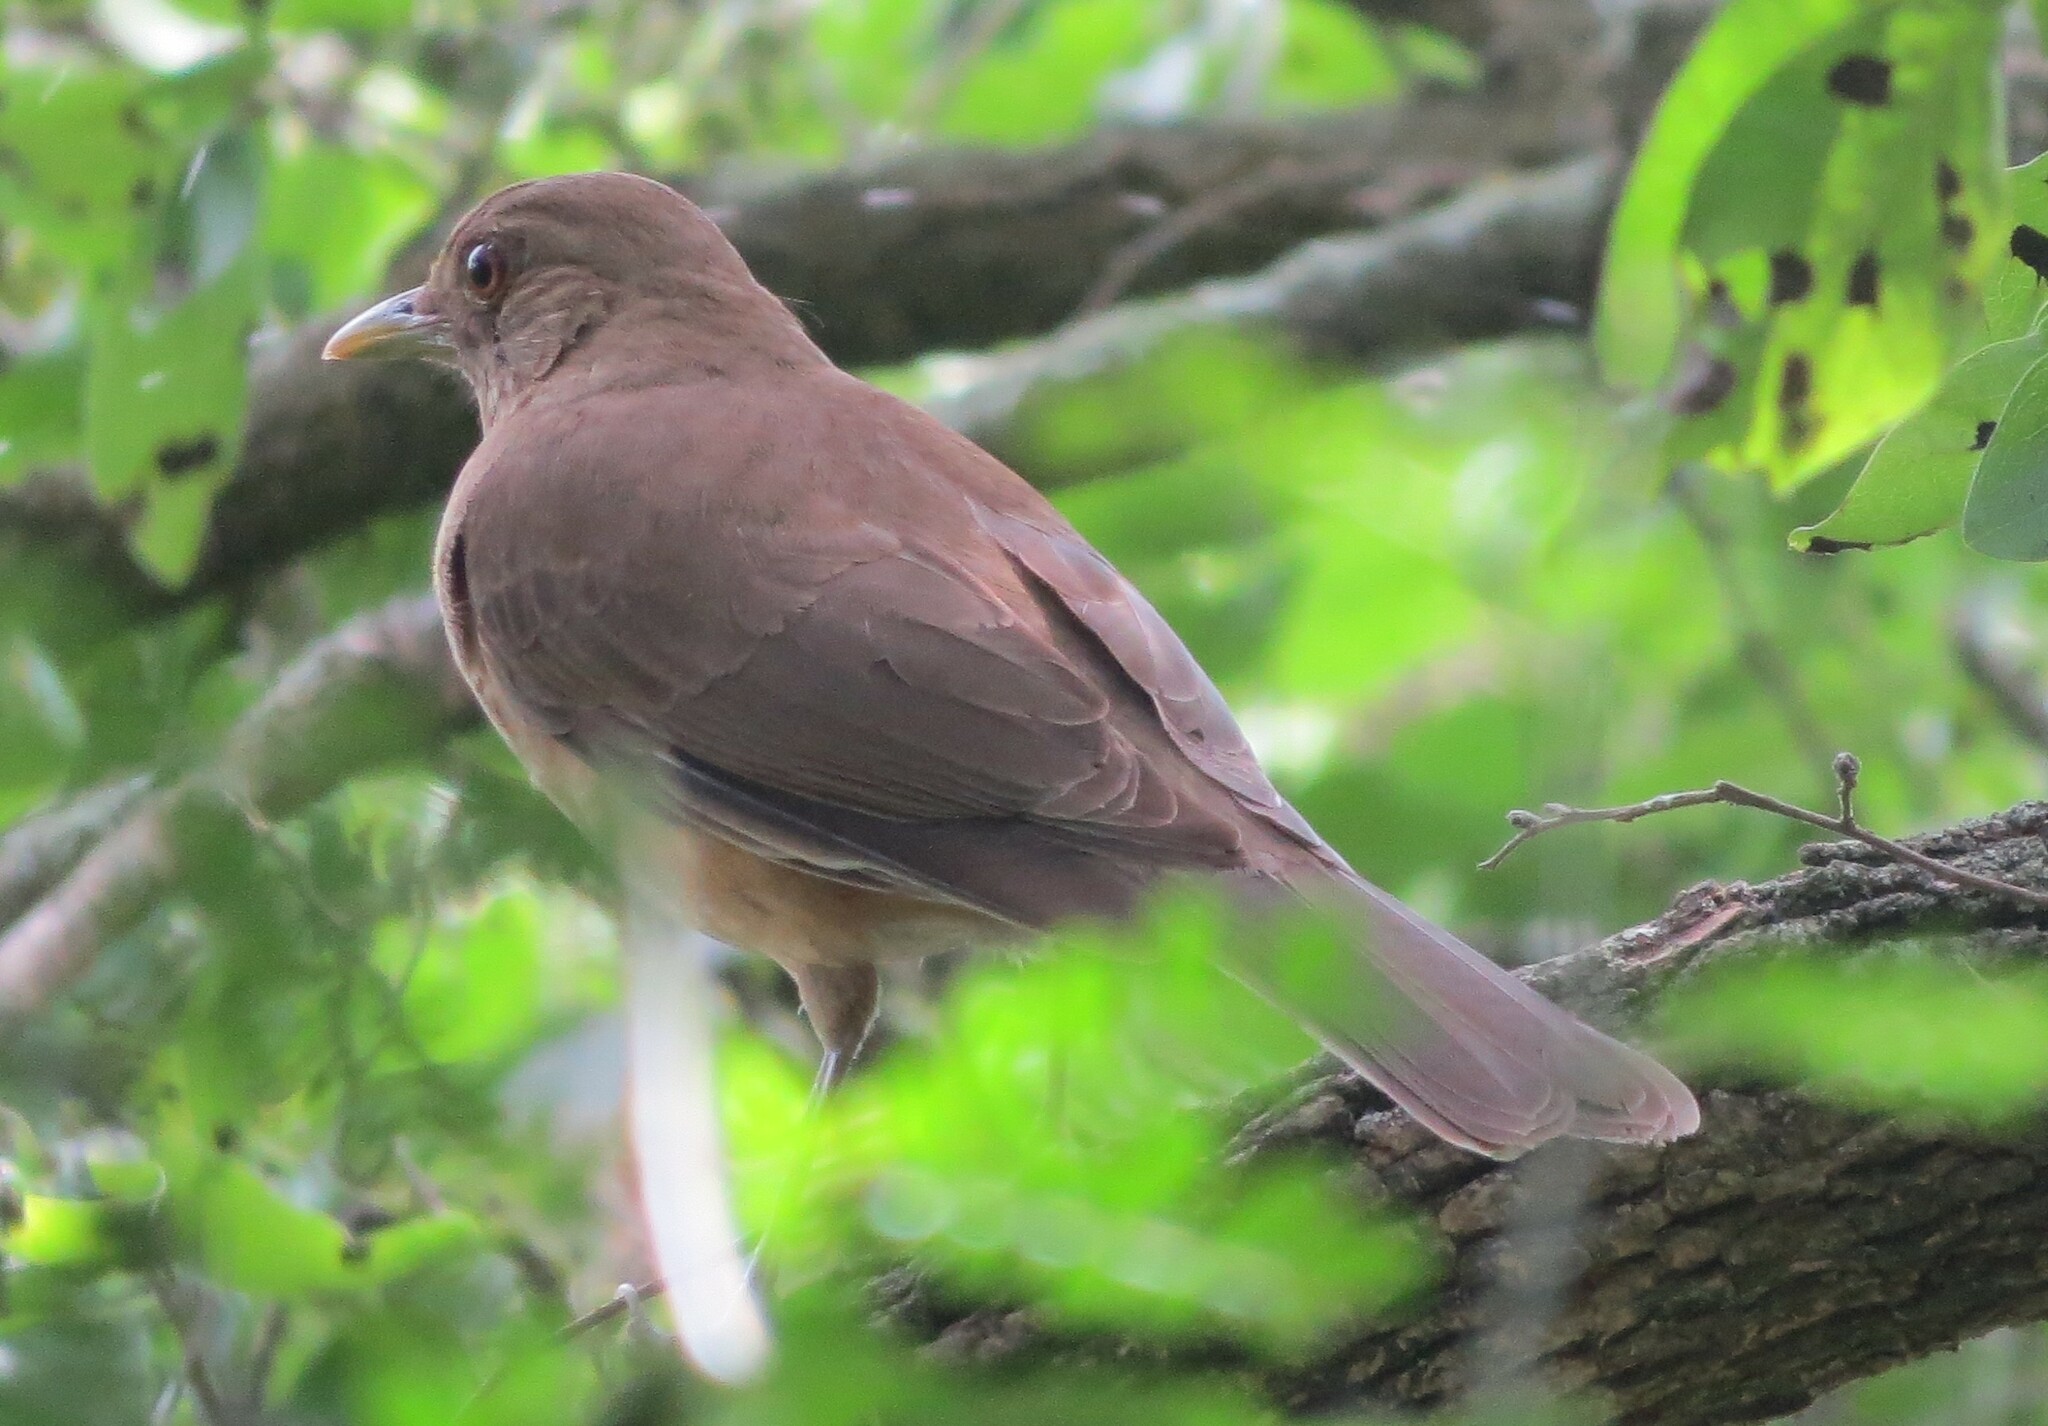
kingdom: Animalia
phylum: Chordata
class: Aves
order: Passeriformes
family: Turdidae
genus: Turdus
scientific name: Turdus grayi
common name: Clay-colored thrush
